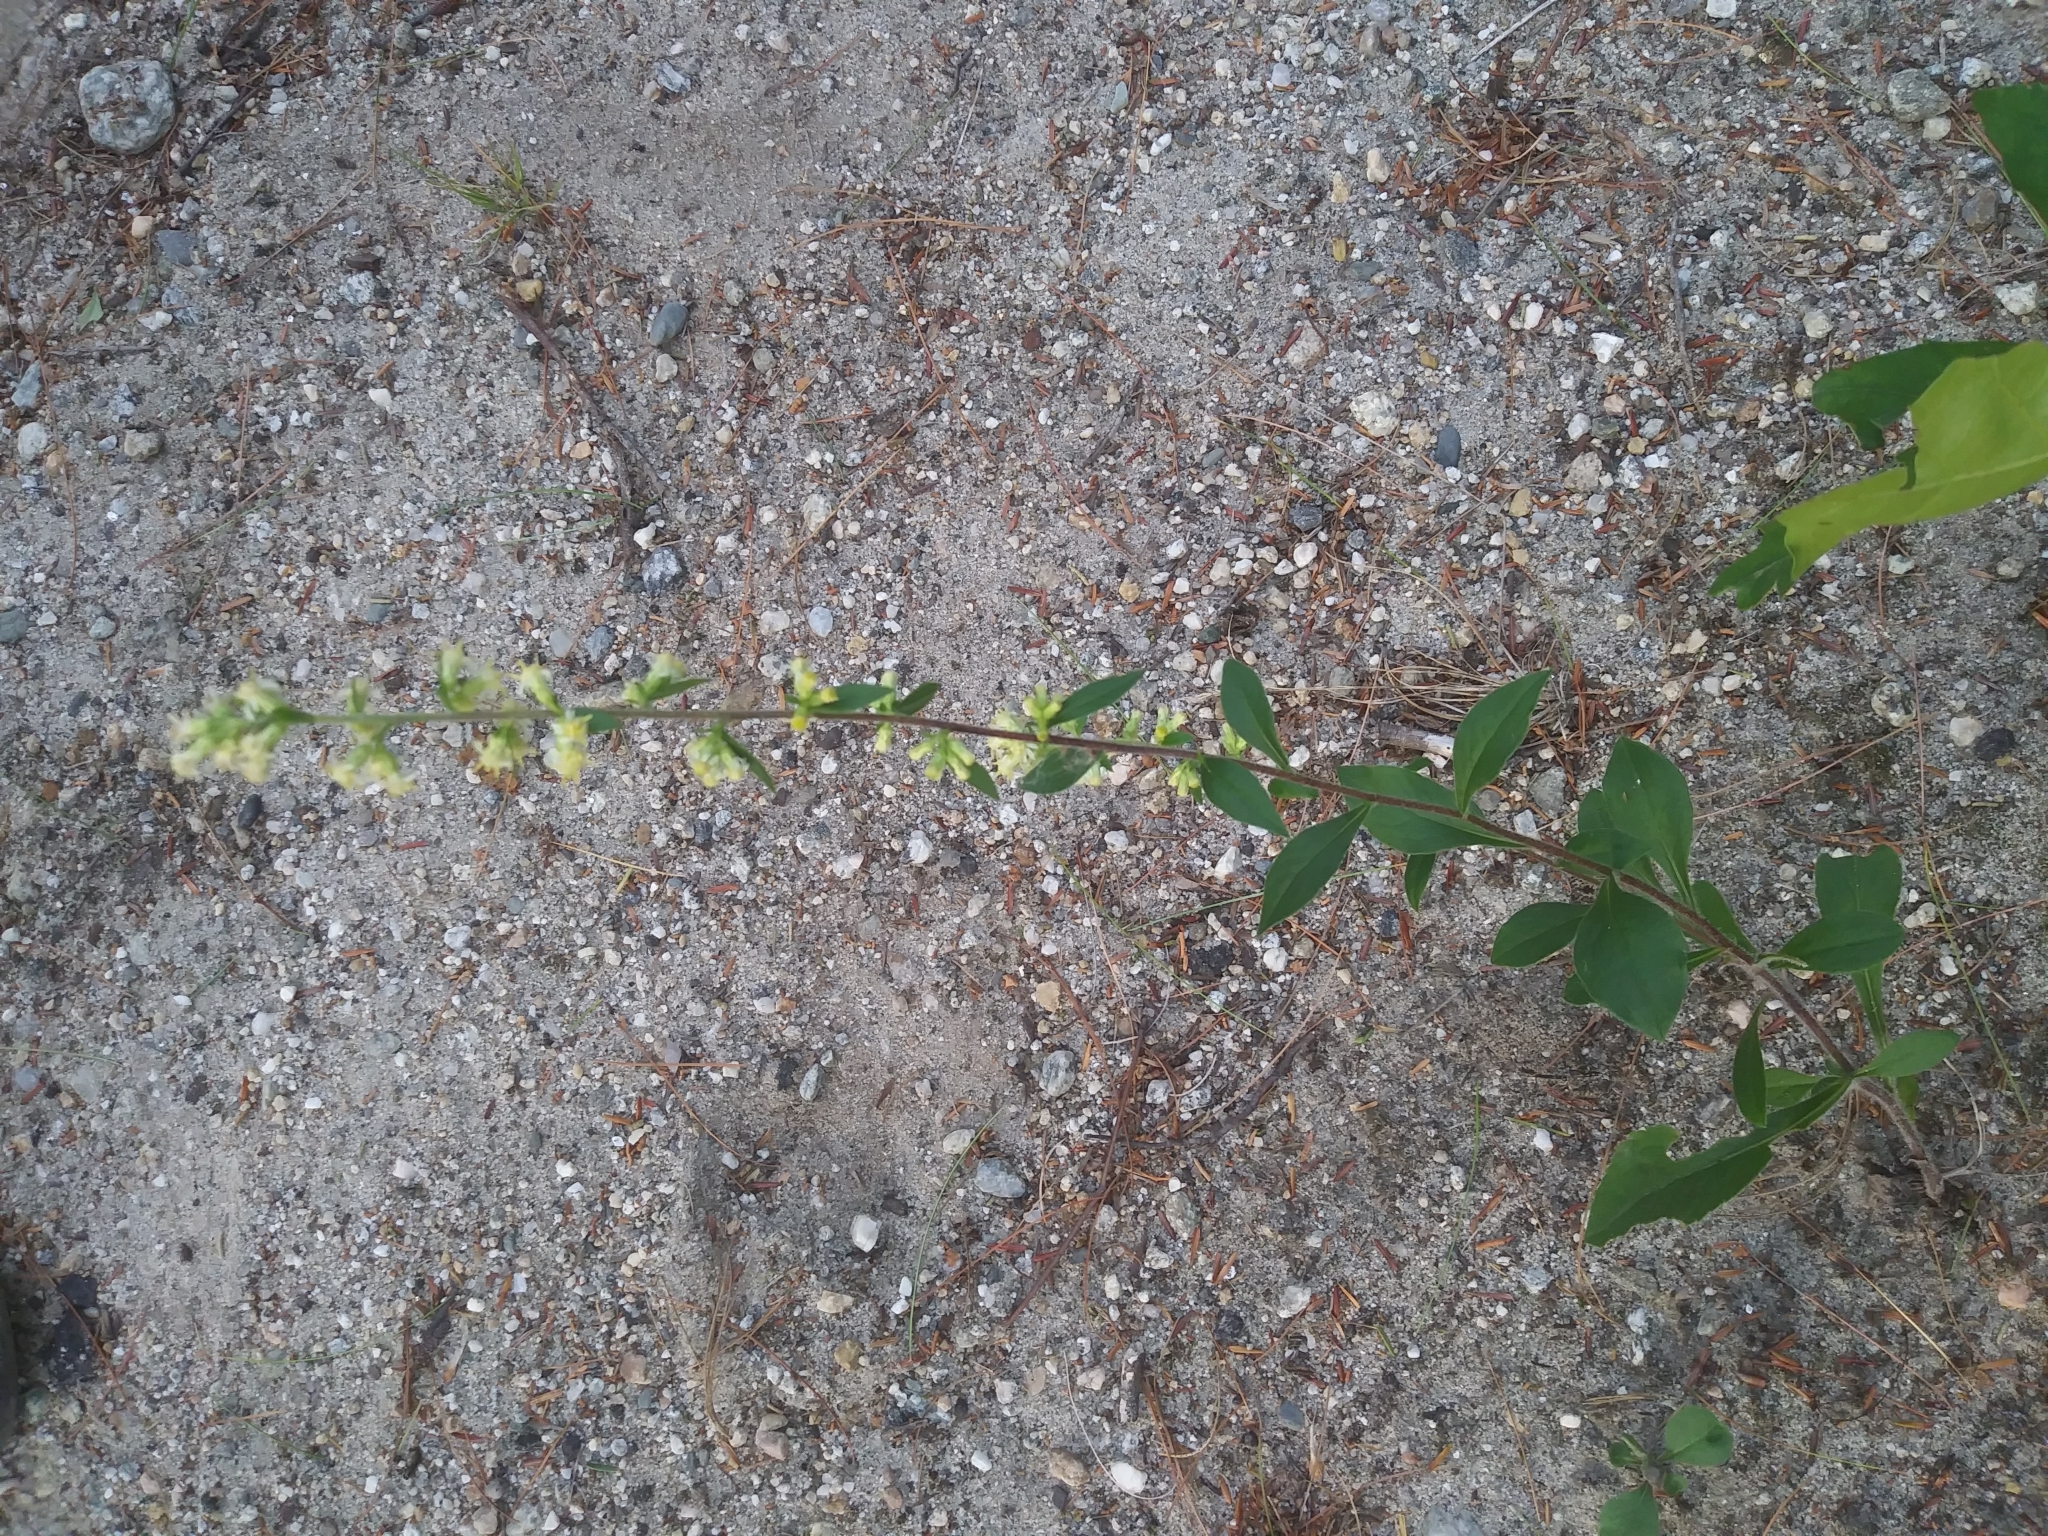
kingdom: Plantae
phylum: Tracheophyta
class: Magnoliopsida
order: Asterales
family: Asteraceae
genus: Solidago
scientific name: Solidago bicolor
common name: Silverrod
